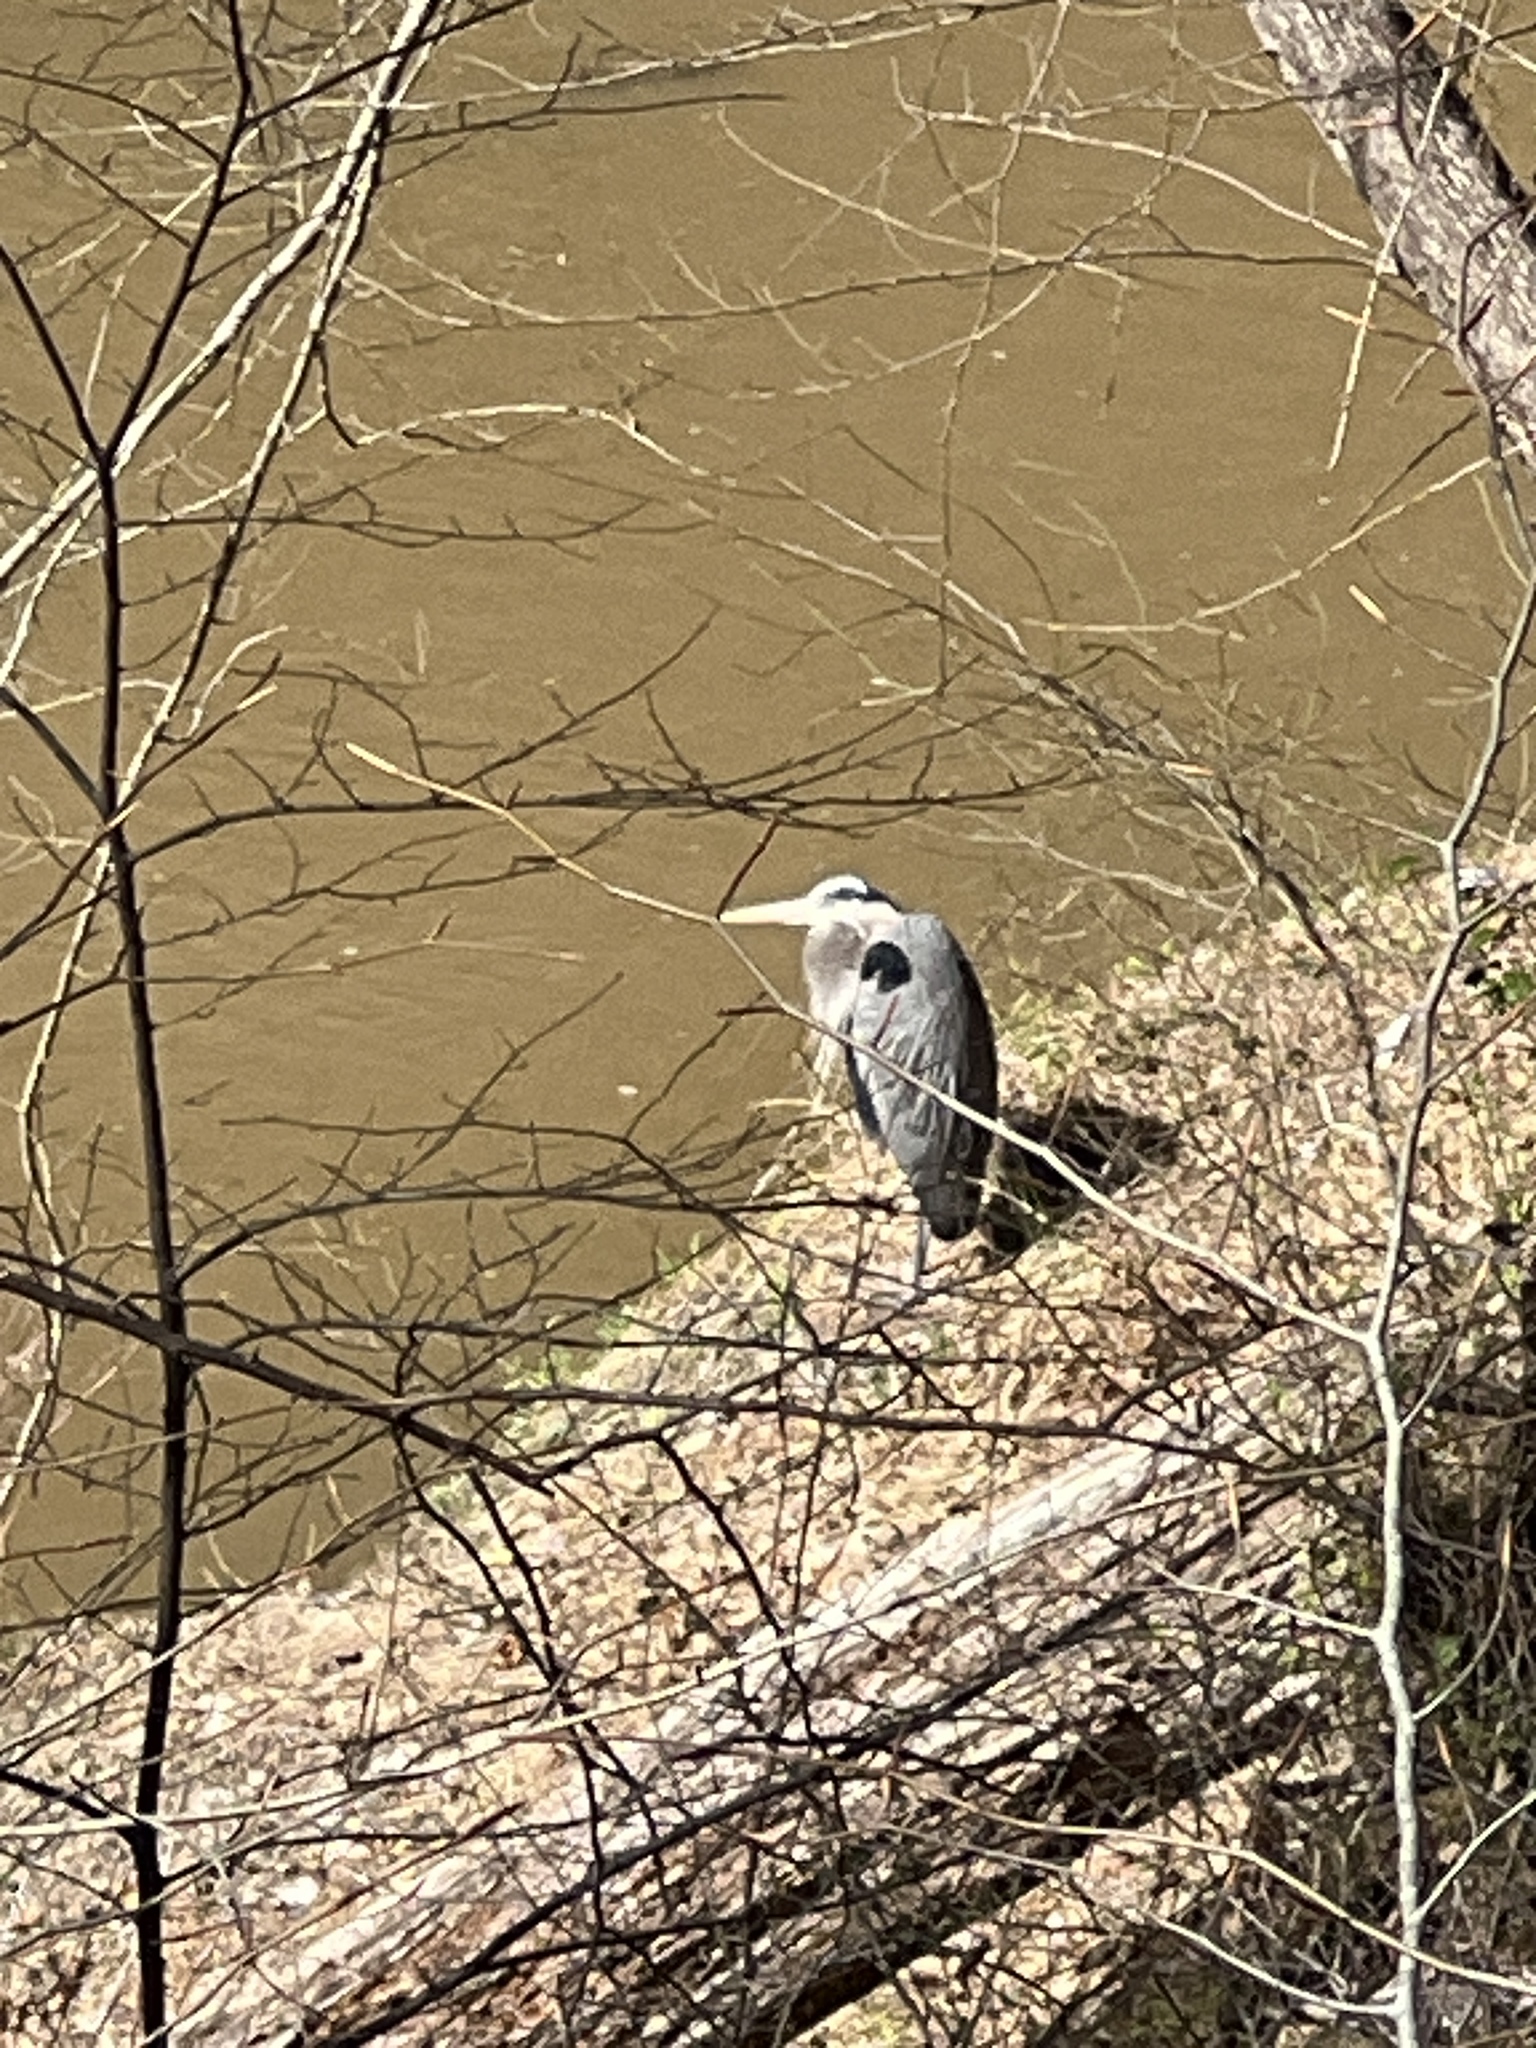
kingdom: Animalia
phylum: Chordata
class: Aves
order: Pelecaniformes
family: Ardeidae
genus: Ardea
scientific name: Ardea herodias
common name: Great blue heron
